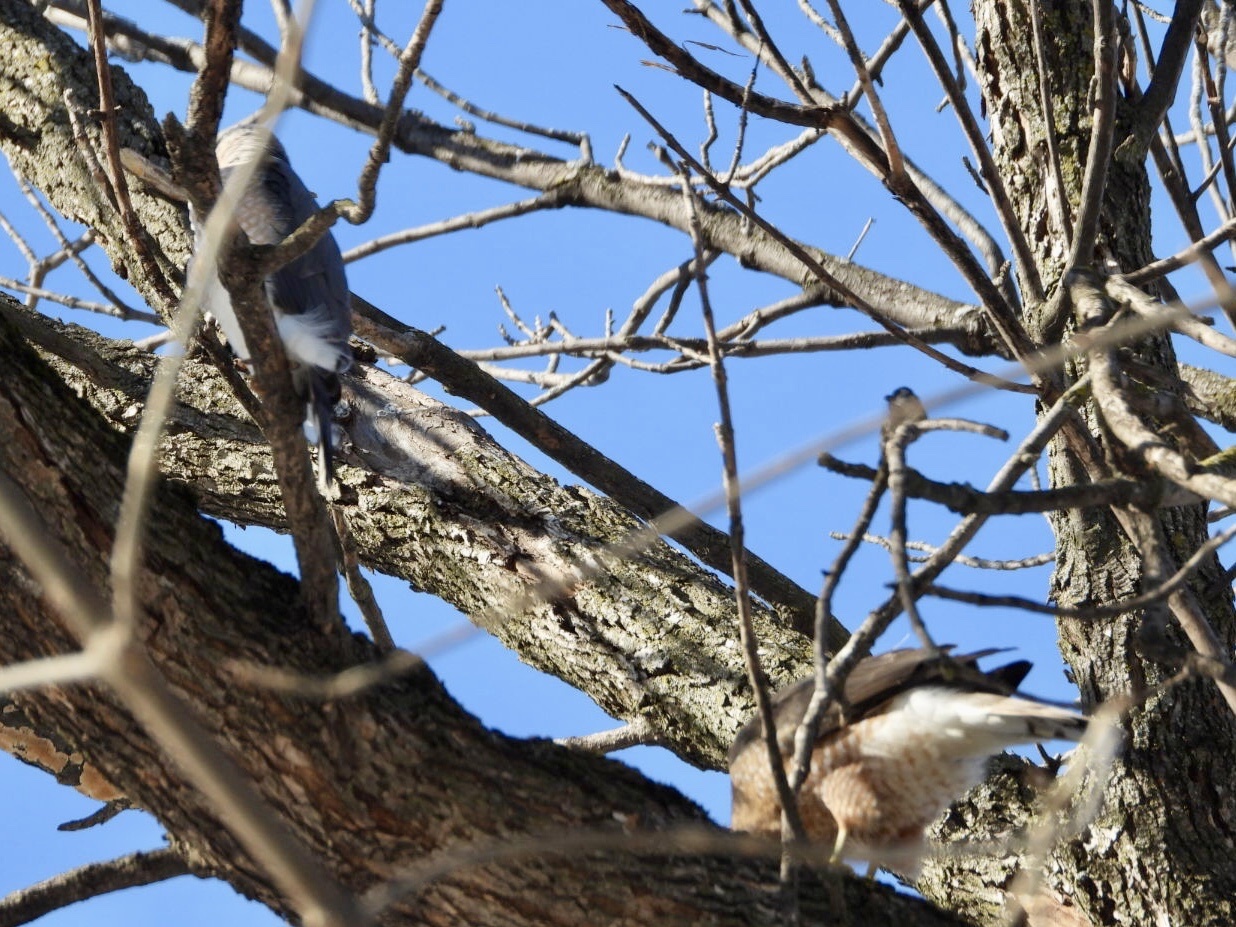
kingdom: Animalia
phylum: Chordata
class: Aves
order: Accipitriformes
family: Accipitridae
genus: Accipiter
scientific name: Accipiter cooperii
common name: Cooper's hawk
